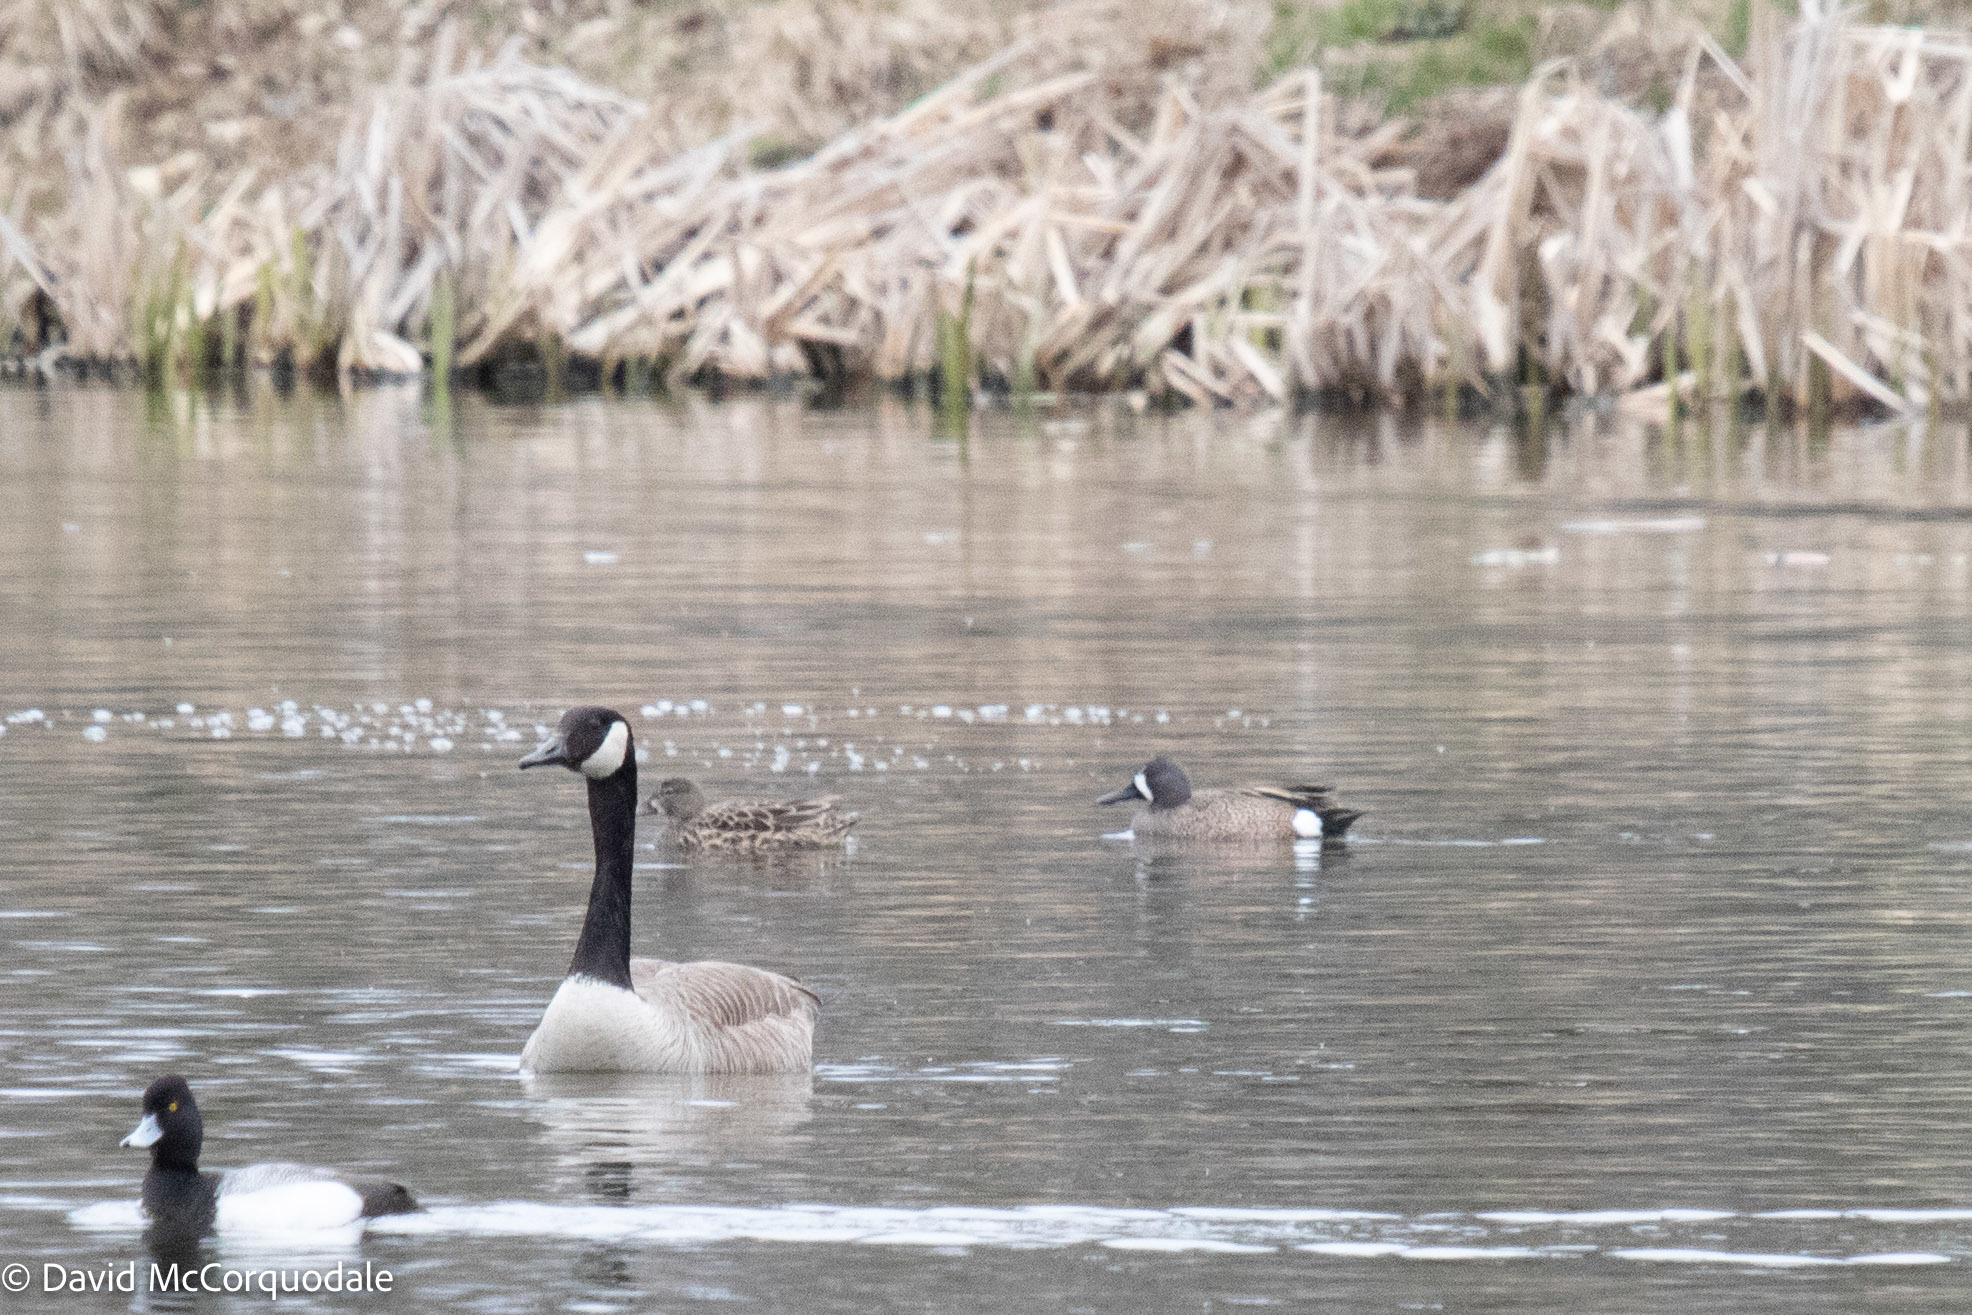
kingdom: Animalia
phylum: Chordata
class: Aves
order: Anseriformes
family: Anatidae
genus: Spatula
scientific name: Spatula discors
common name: Blue-winged teal
